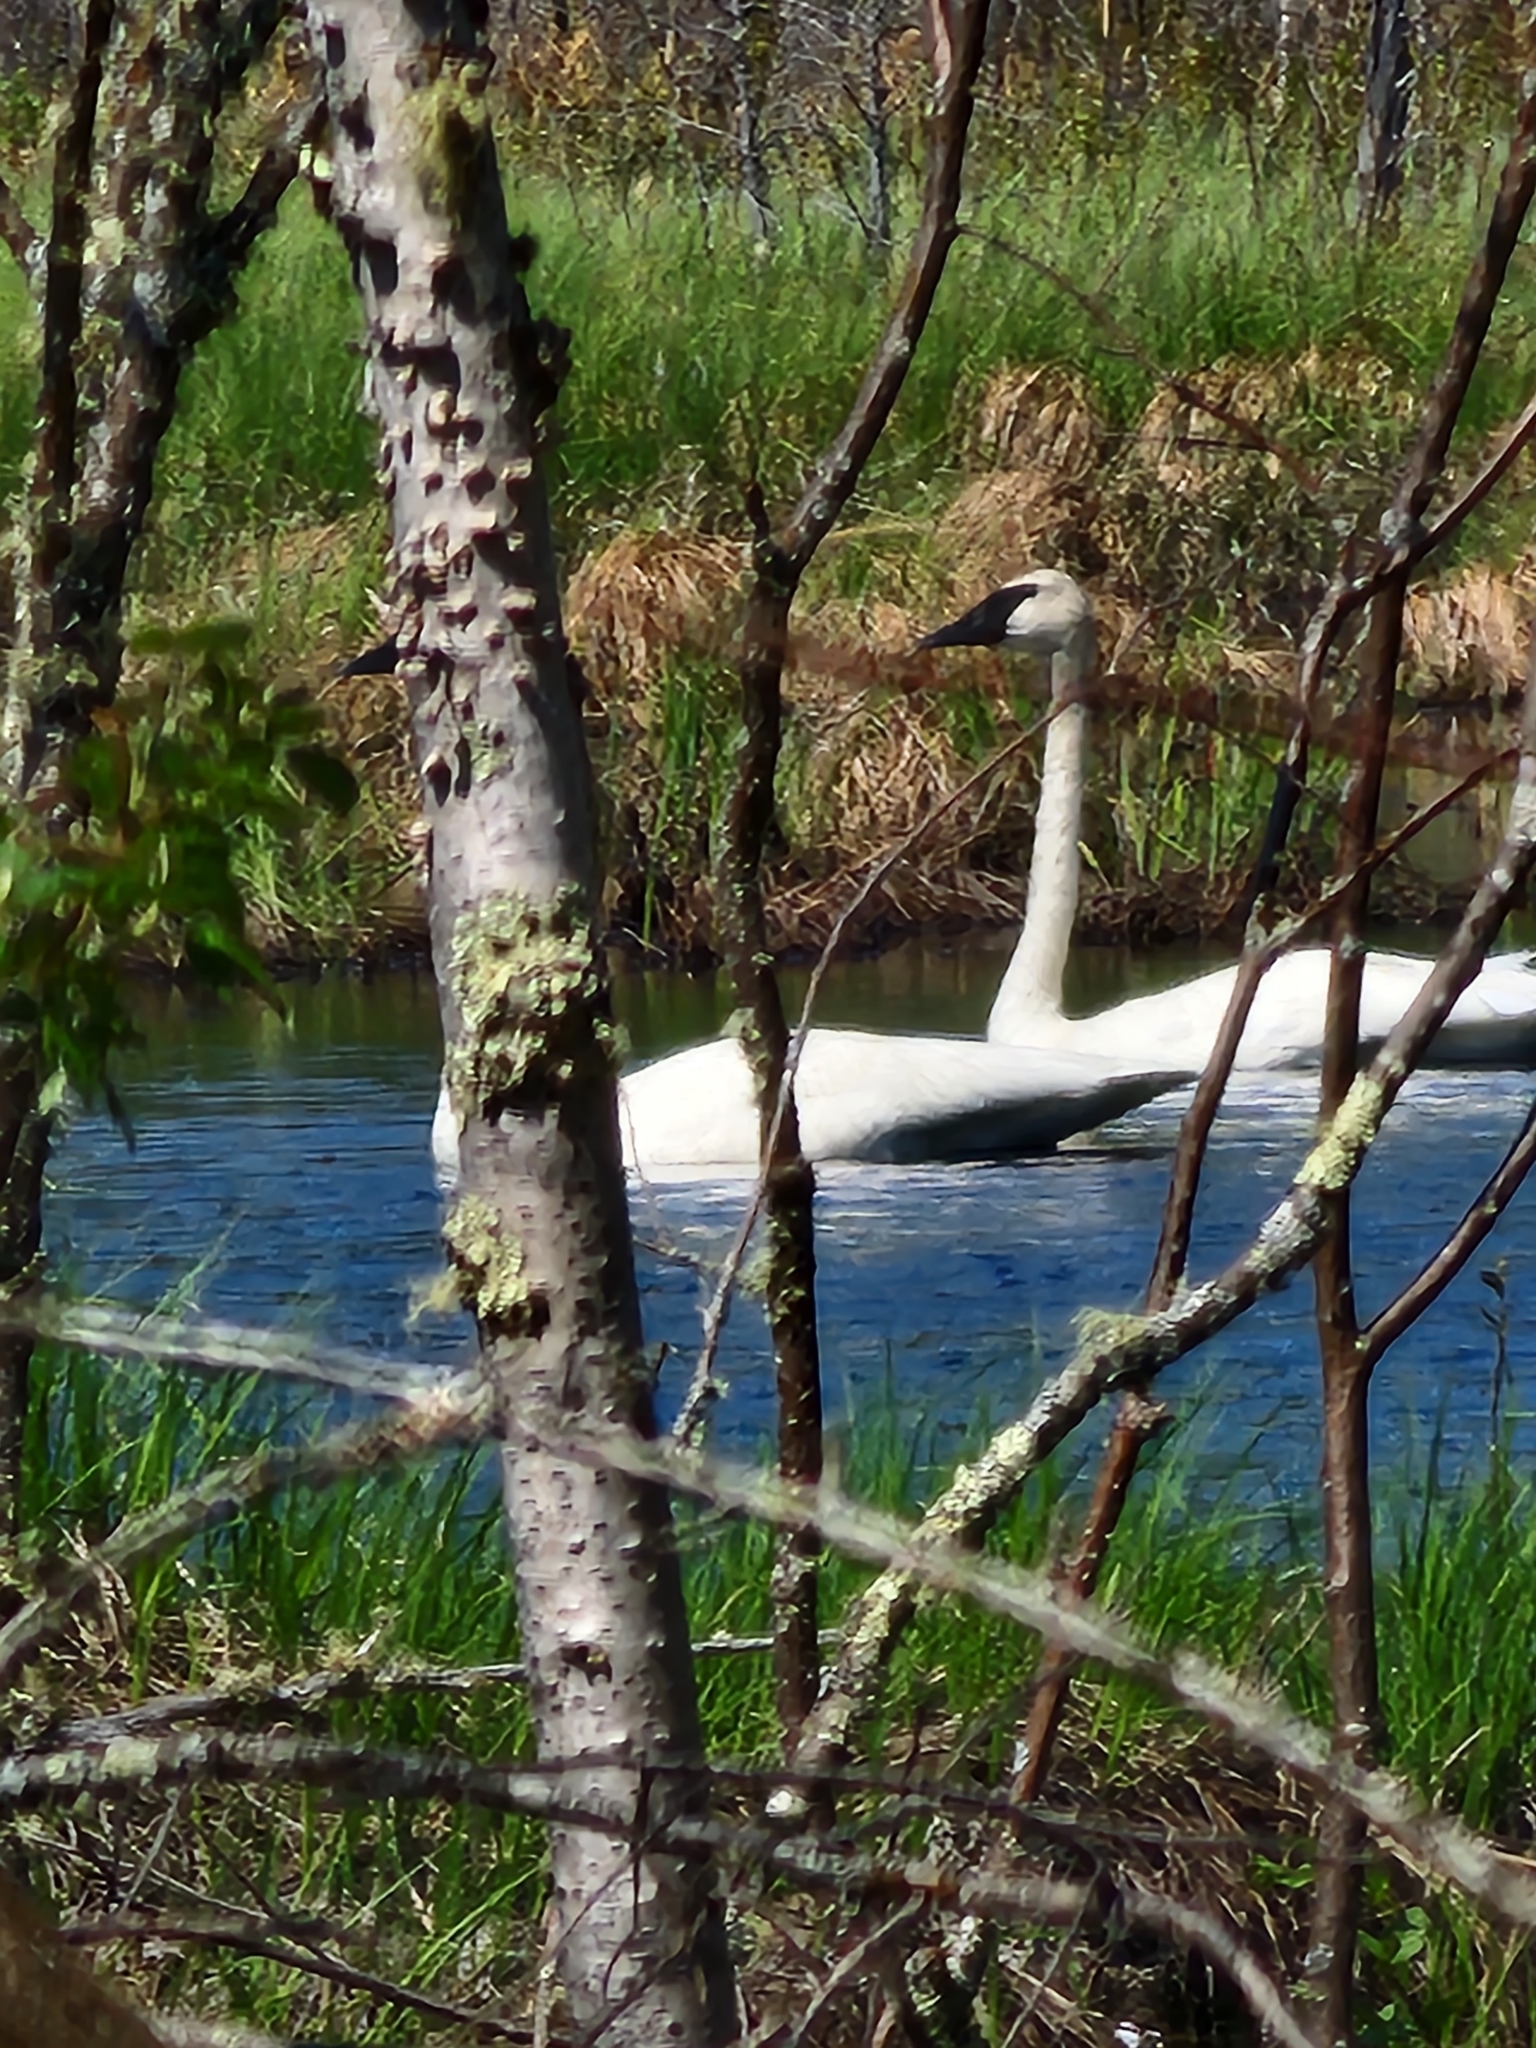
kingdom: Animalia
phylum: Chordata
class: Aves
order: Anseriformes
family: Anatidae
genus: Cygnus
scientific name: Cygnus buccinator
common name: Trumpeter swan
